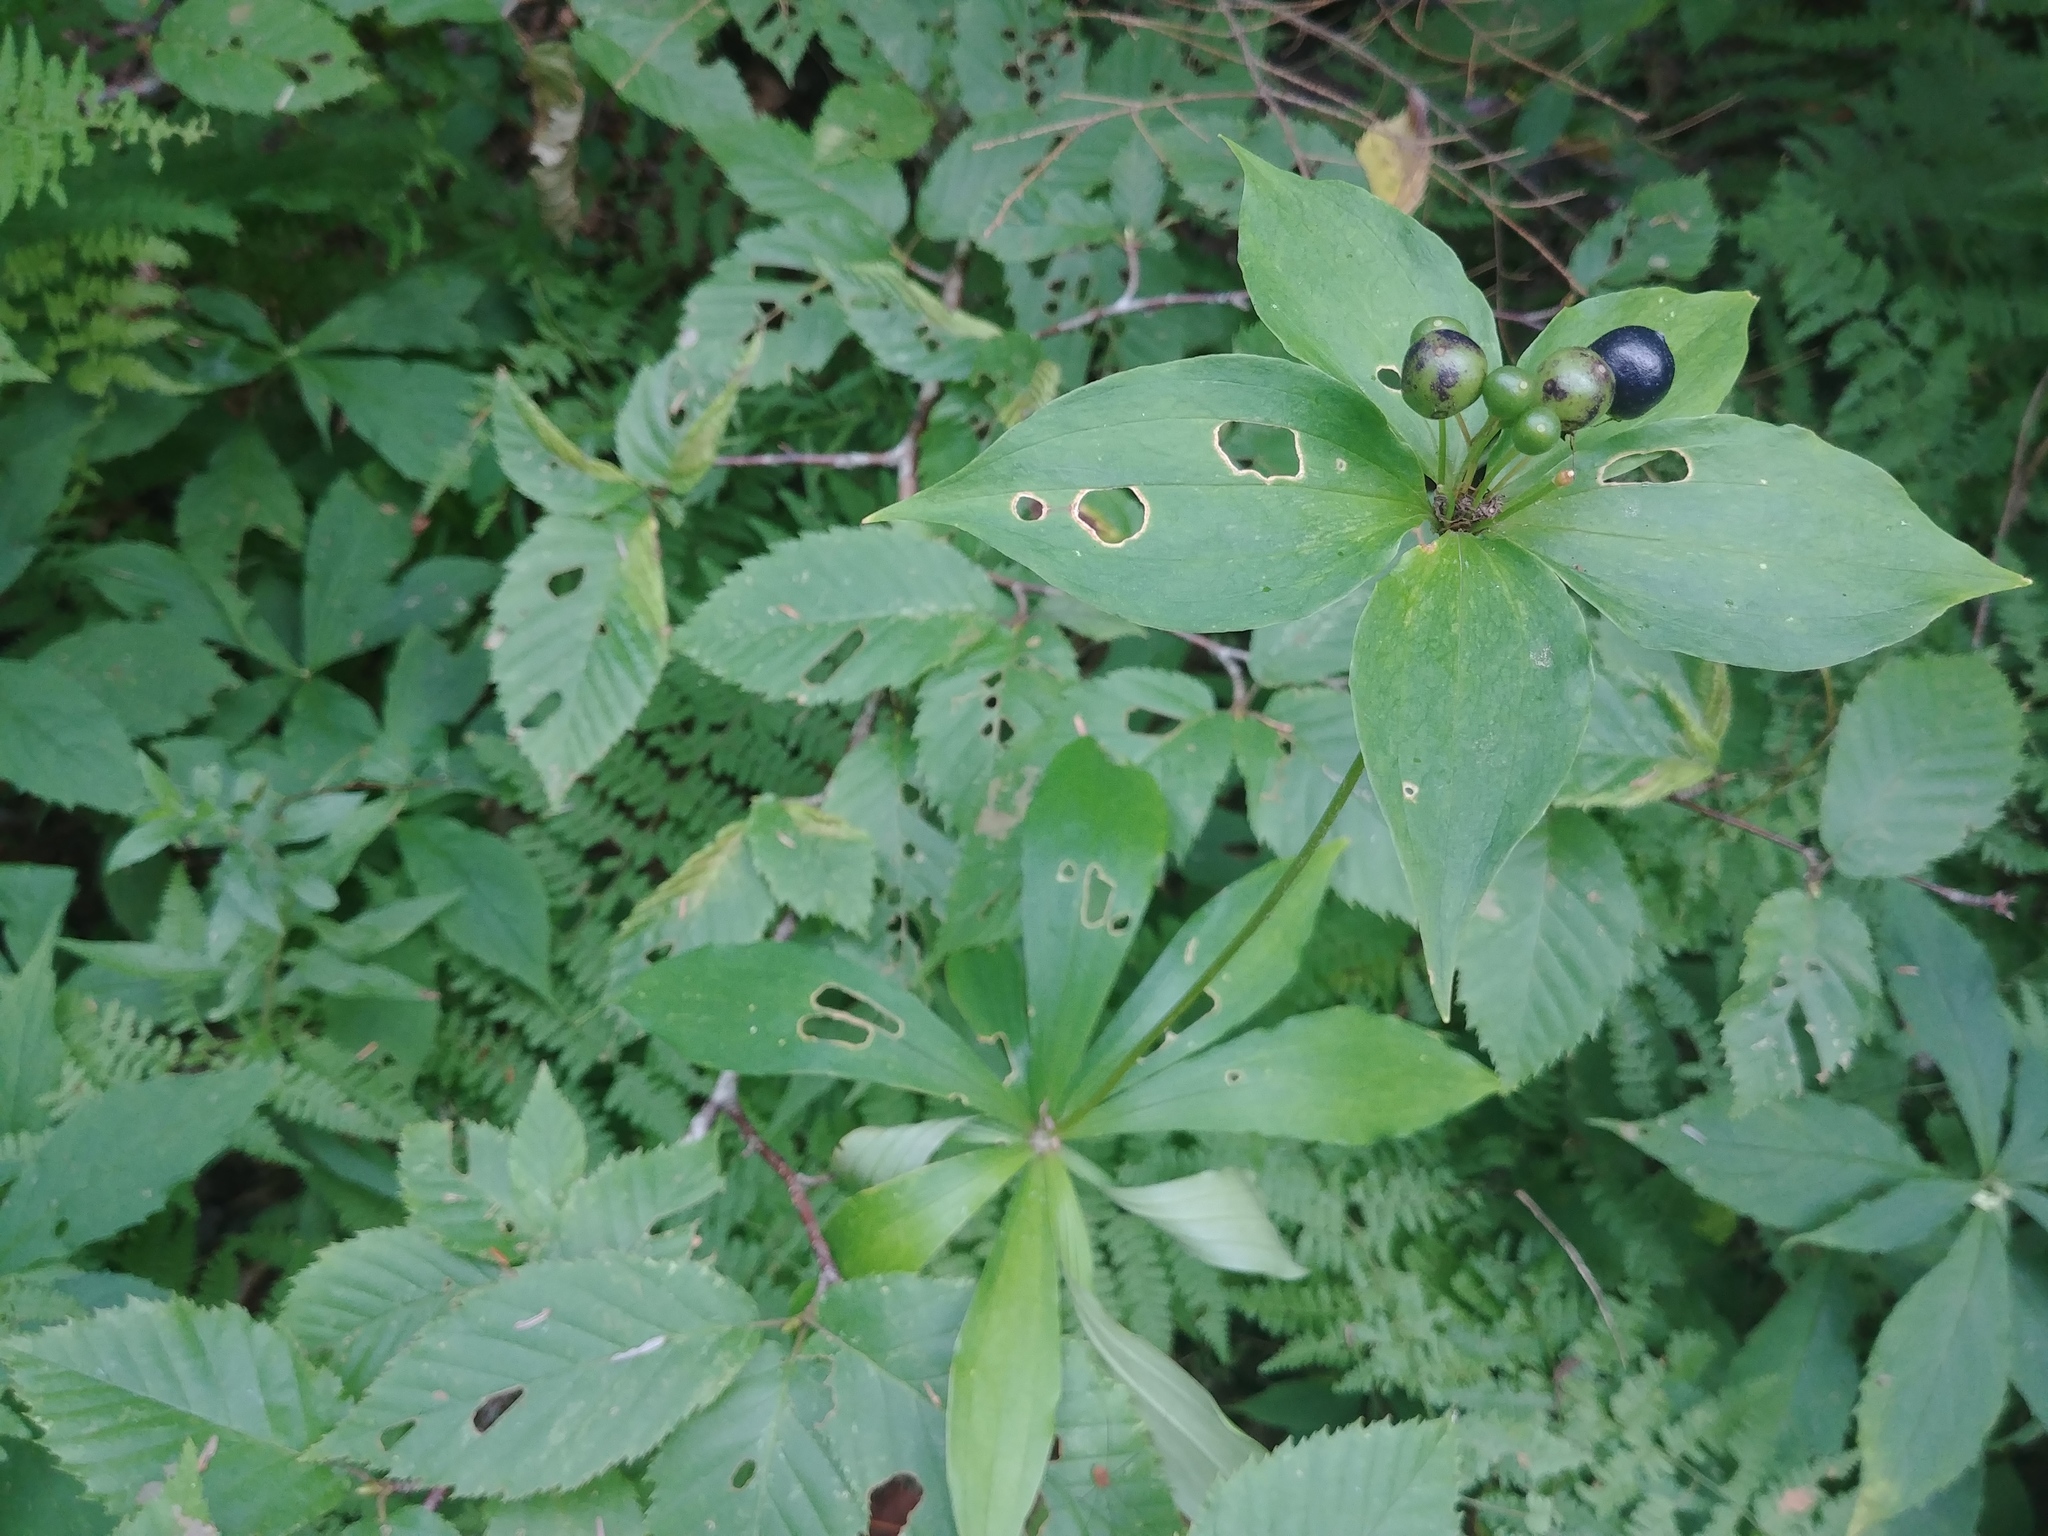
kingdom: Plantae
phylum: Tracheophyta
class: Liliopsida
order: Liliales
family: Liliaceae
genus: Medeola
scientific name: Medeola virginiana
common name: Indian cucumber-root
